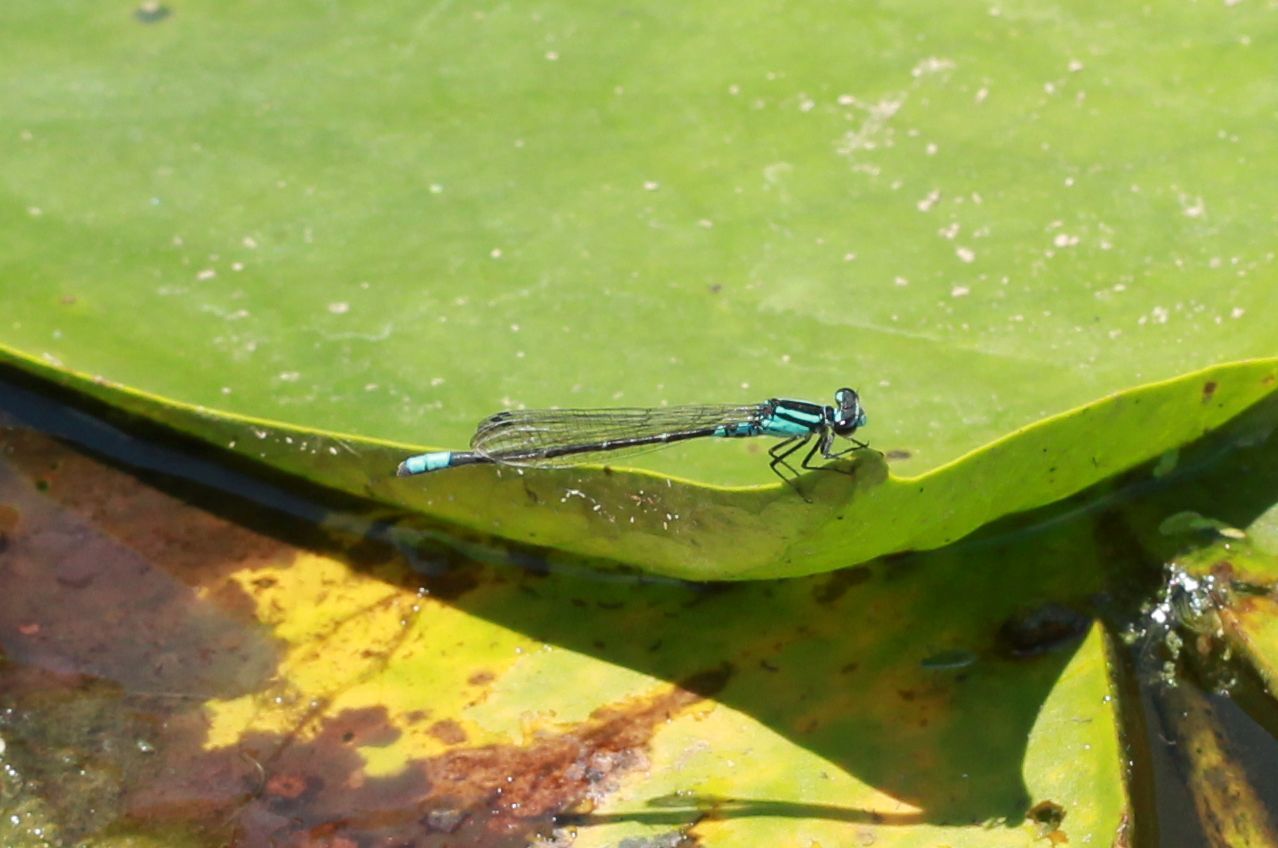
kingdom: Animalia
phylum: Arthropoda
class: Insecta
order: Odonata
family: Coenagrionidae
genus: Enallagma
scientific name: Enallagma geminatum
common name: Skimming bluet
